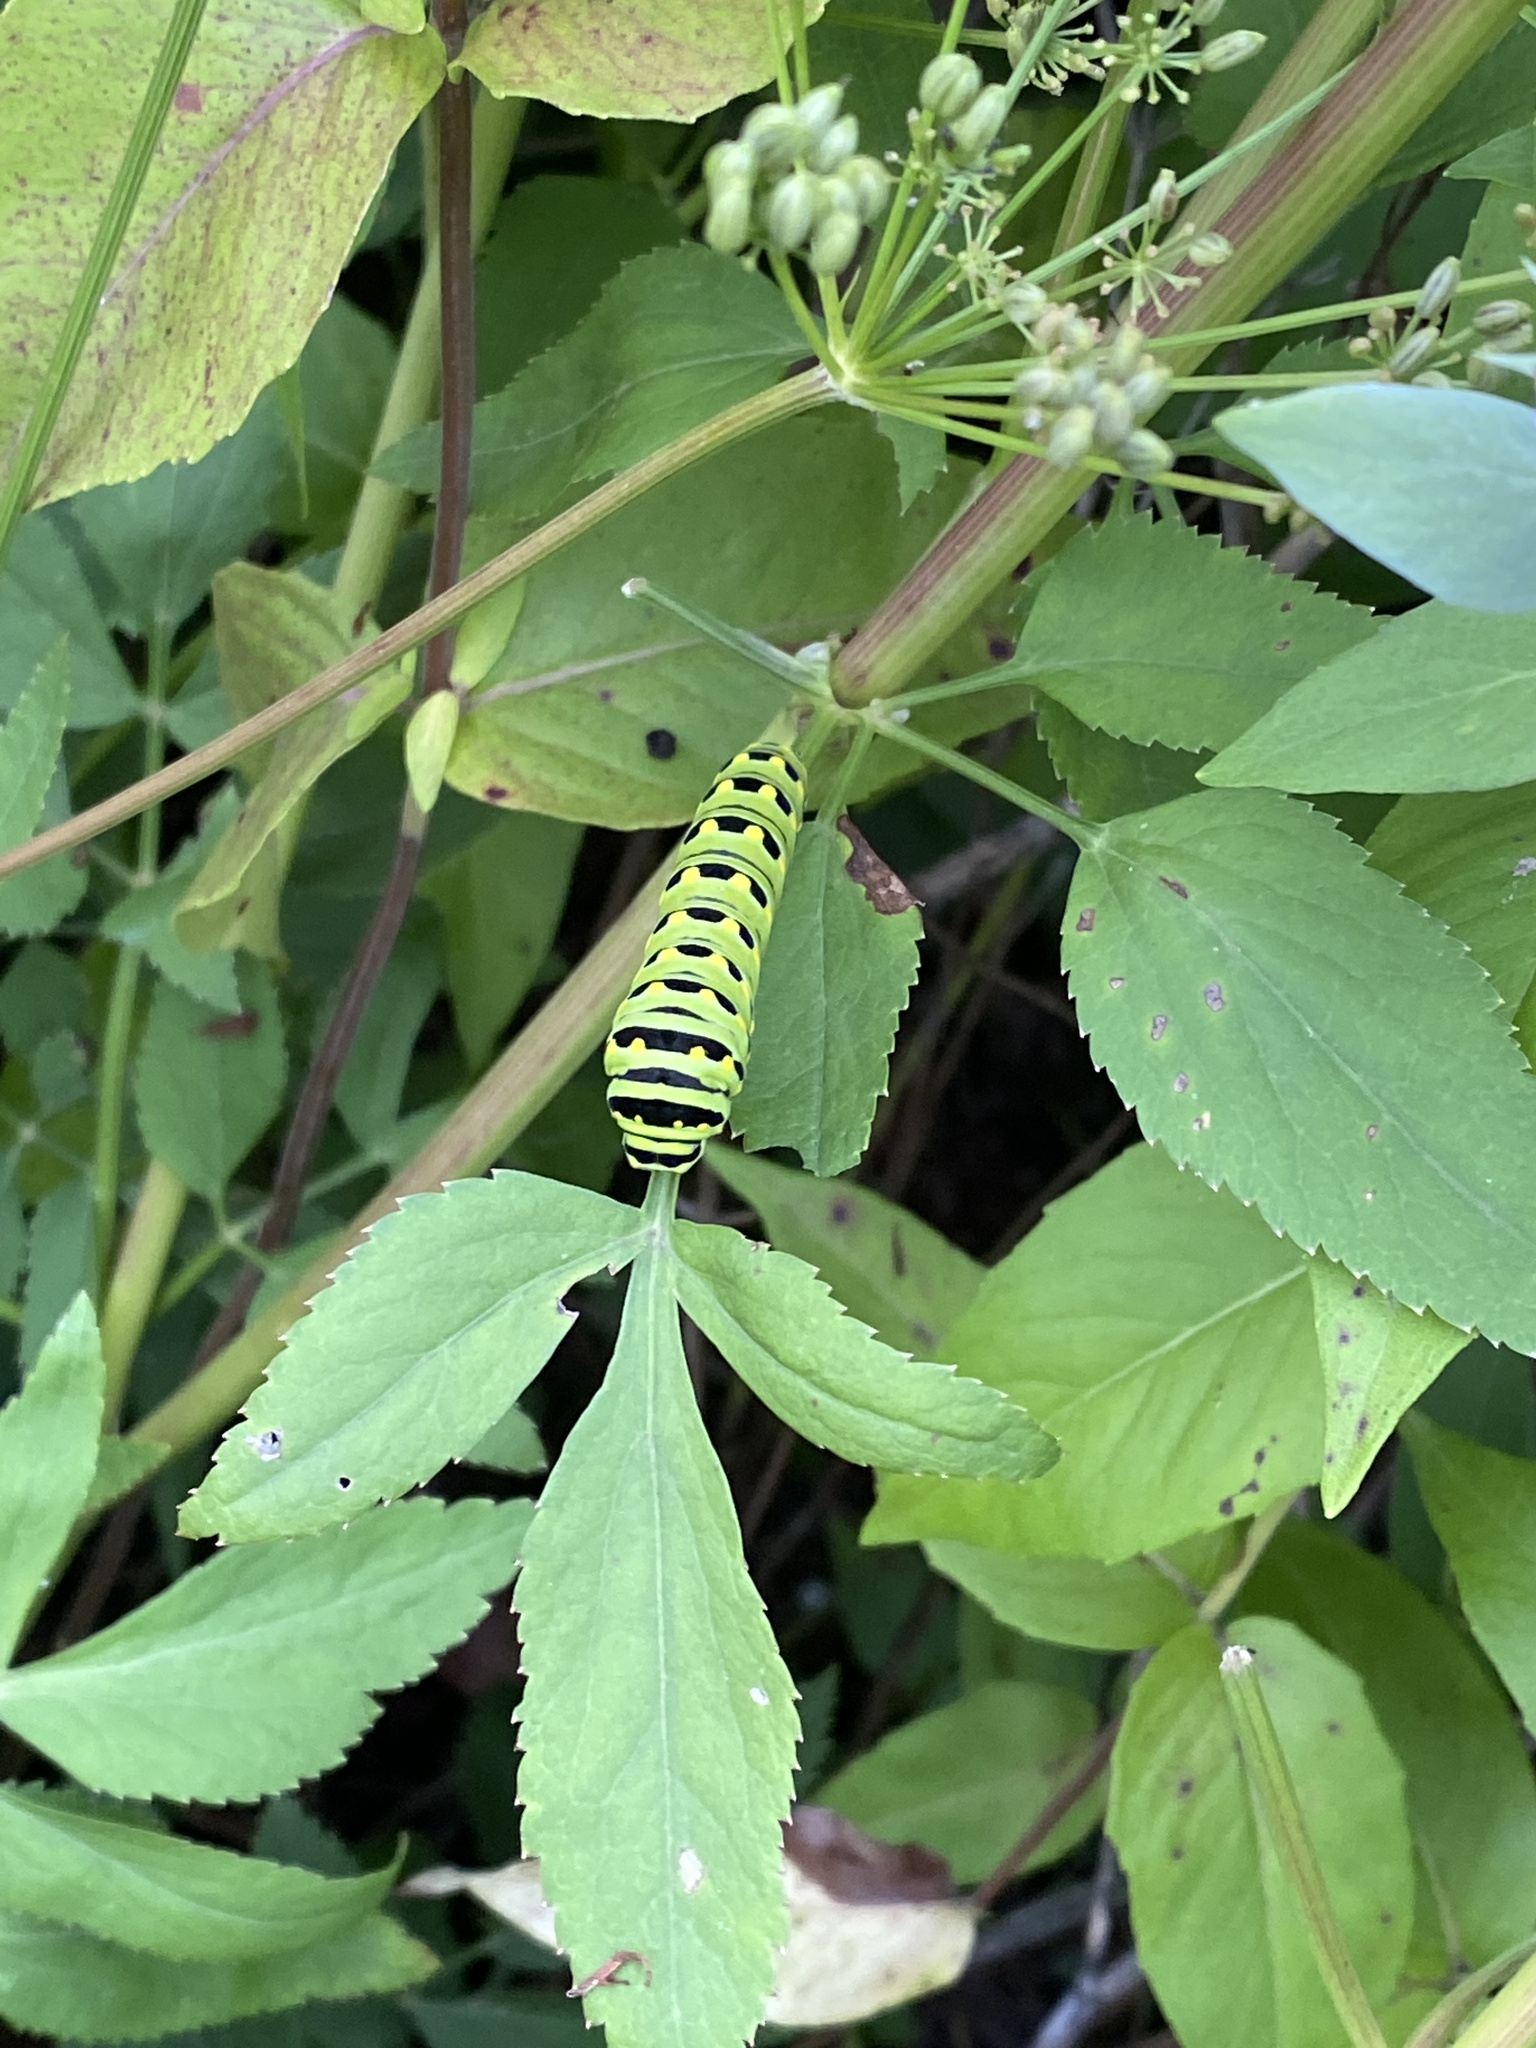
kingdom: Animalia
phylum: Arthropoda
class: Insecta
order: Lepidoptera
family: Papilionidae
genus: Papilio
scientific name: Papilio polyxenes
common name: Black swallowtail
